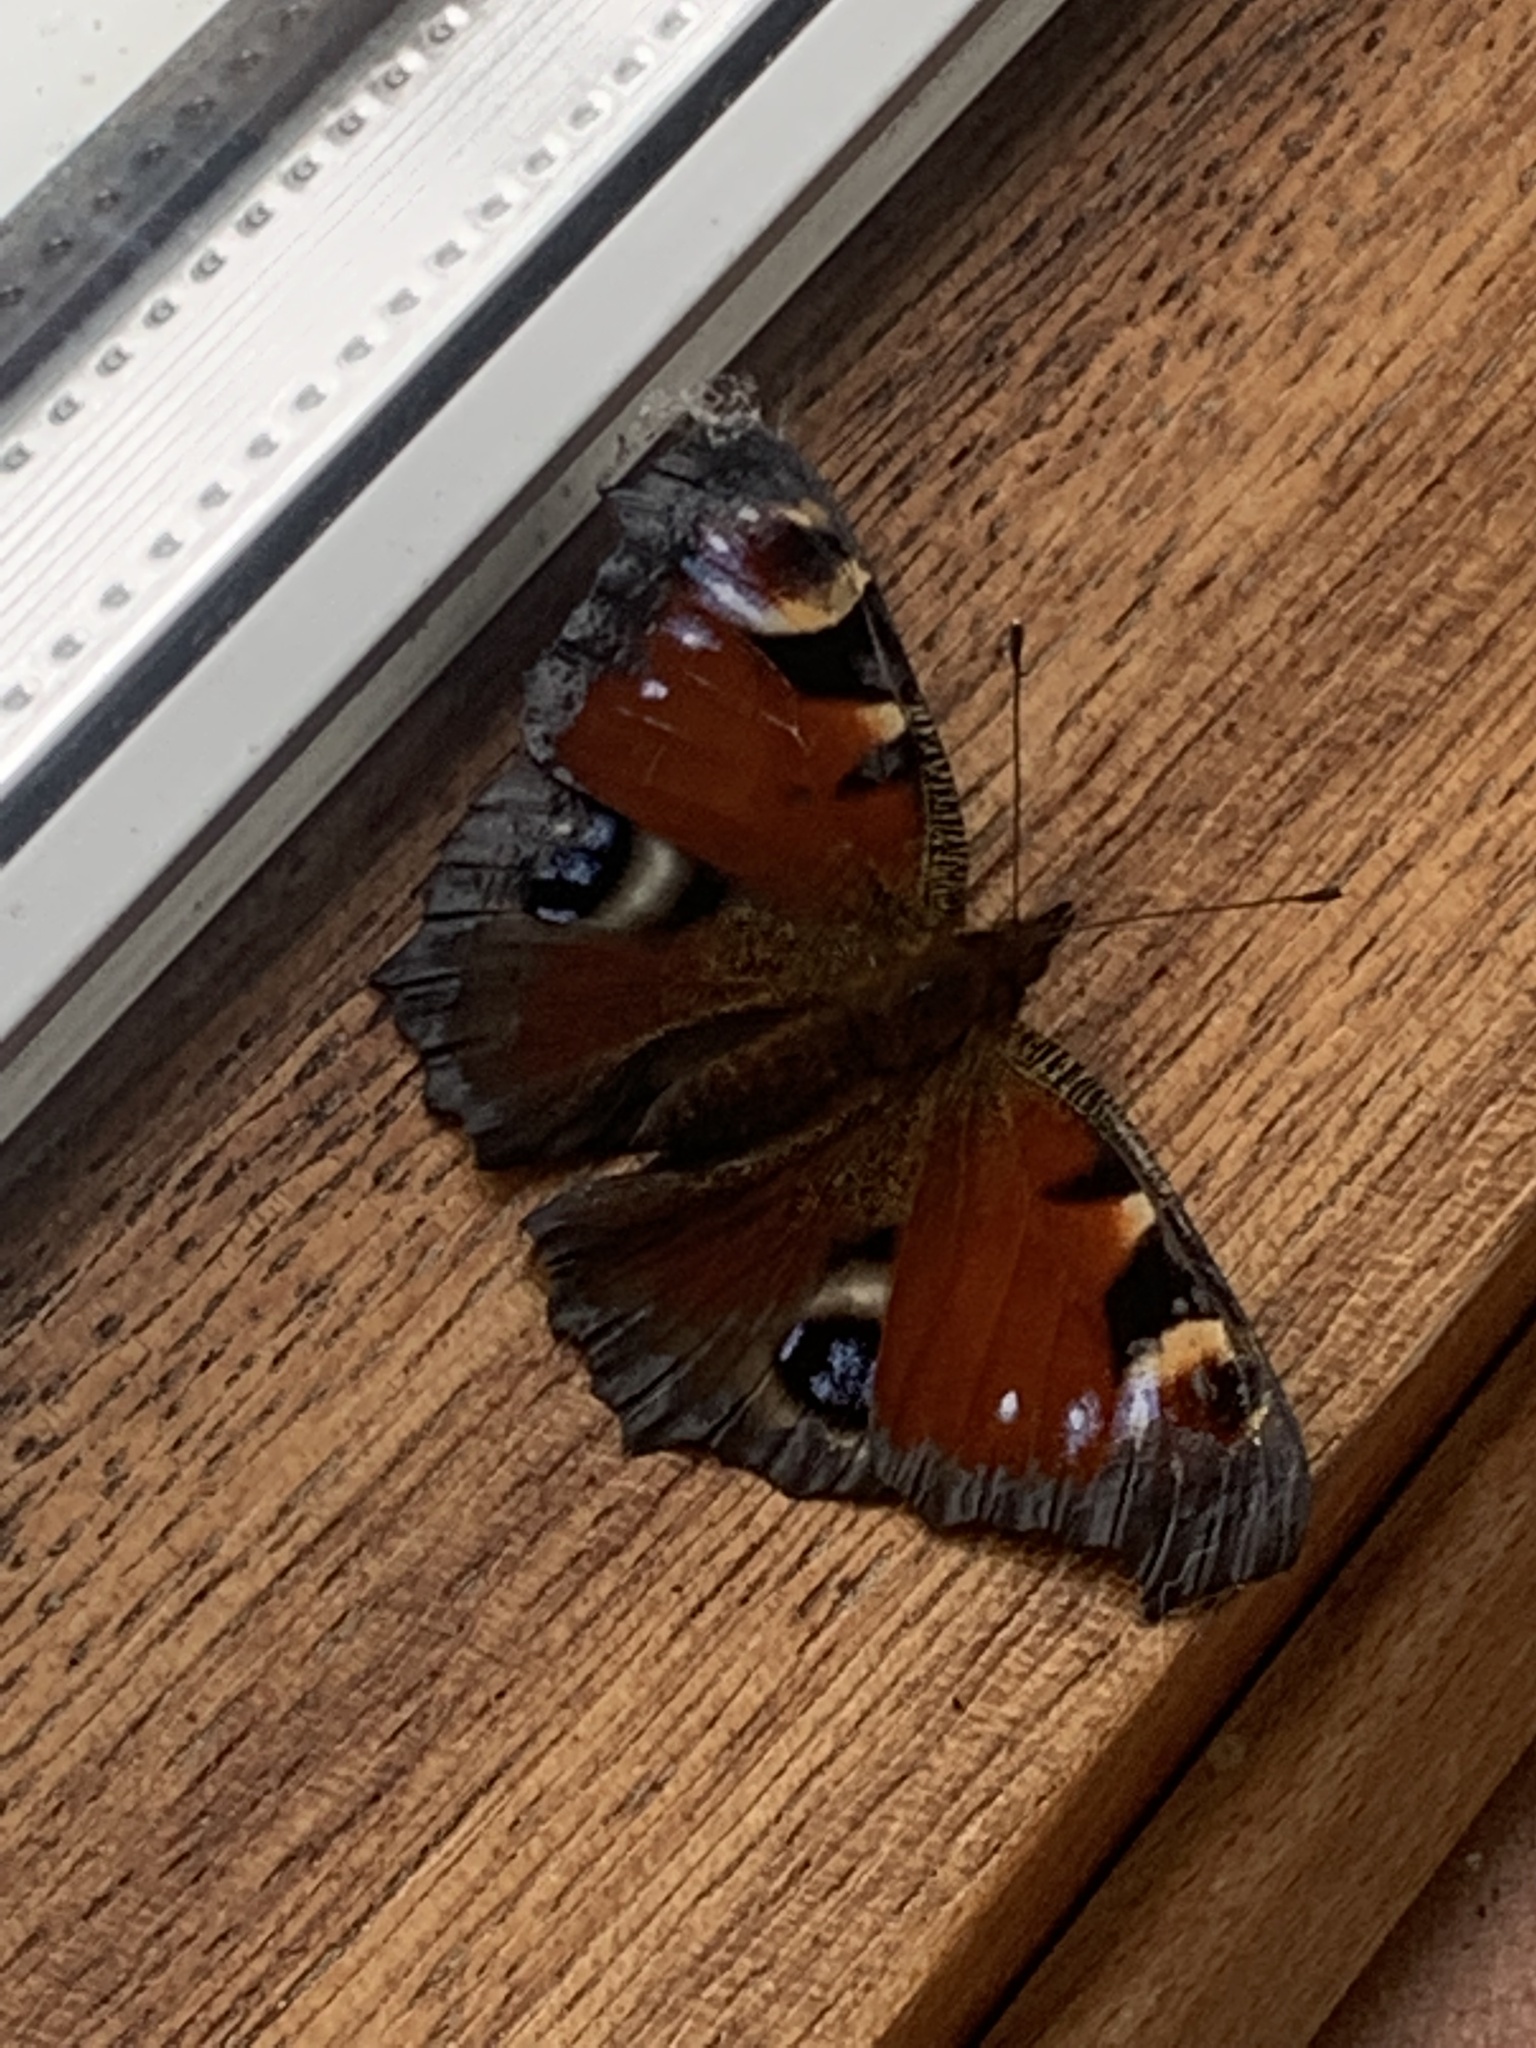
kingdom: Animalia
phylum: Arthropoda
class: Insecta
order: Lepidoptera
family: Nymphalidae
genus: Aglais
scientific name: Aglais io
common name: Peacock
